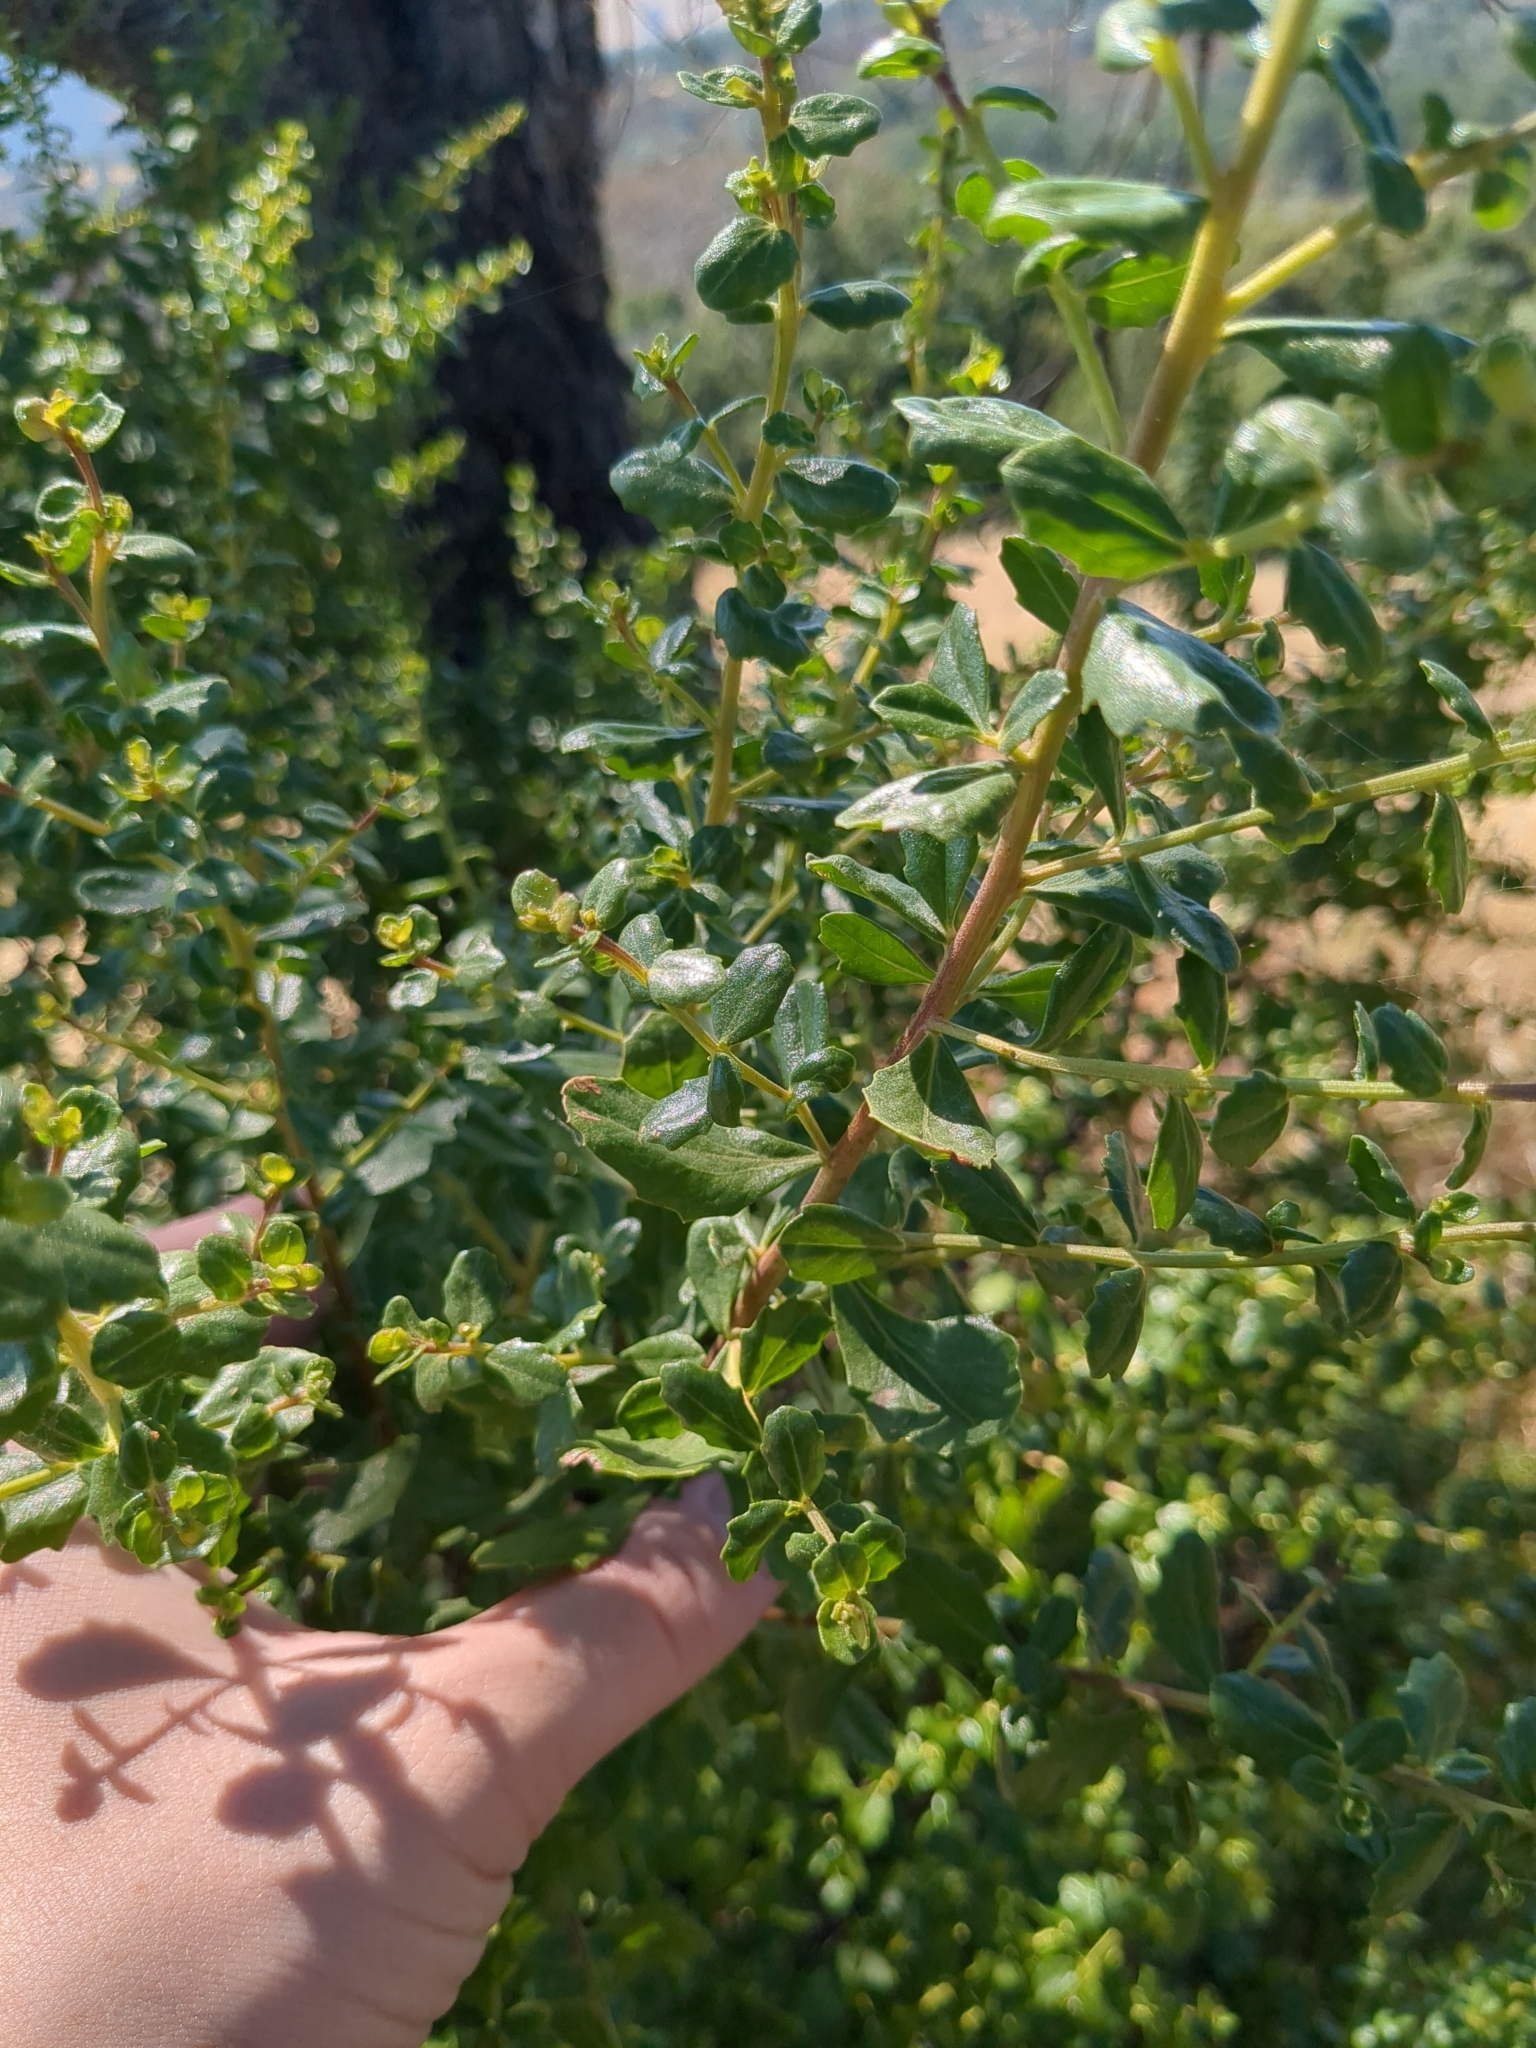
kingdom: Plantae
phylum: Tracheophyta
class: Magnoliopsida
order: Asterales
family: Asteraceae
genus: Baccharis
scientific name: Baccharis pilularis
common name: Coyotebrush
